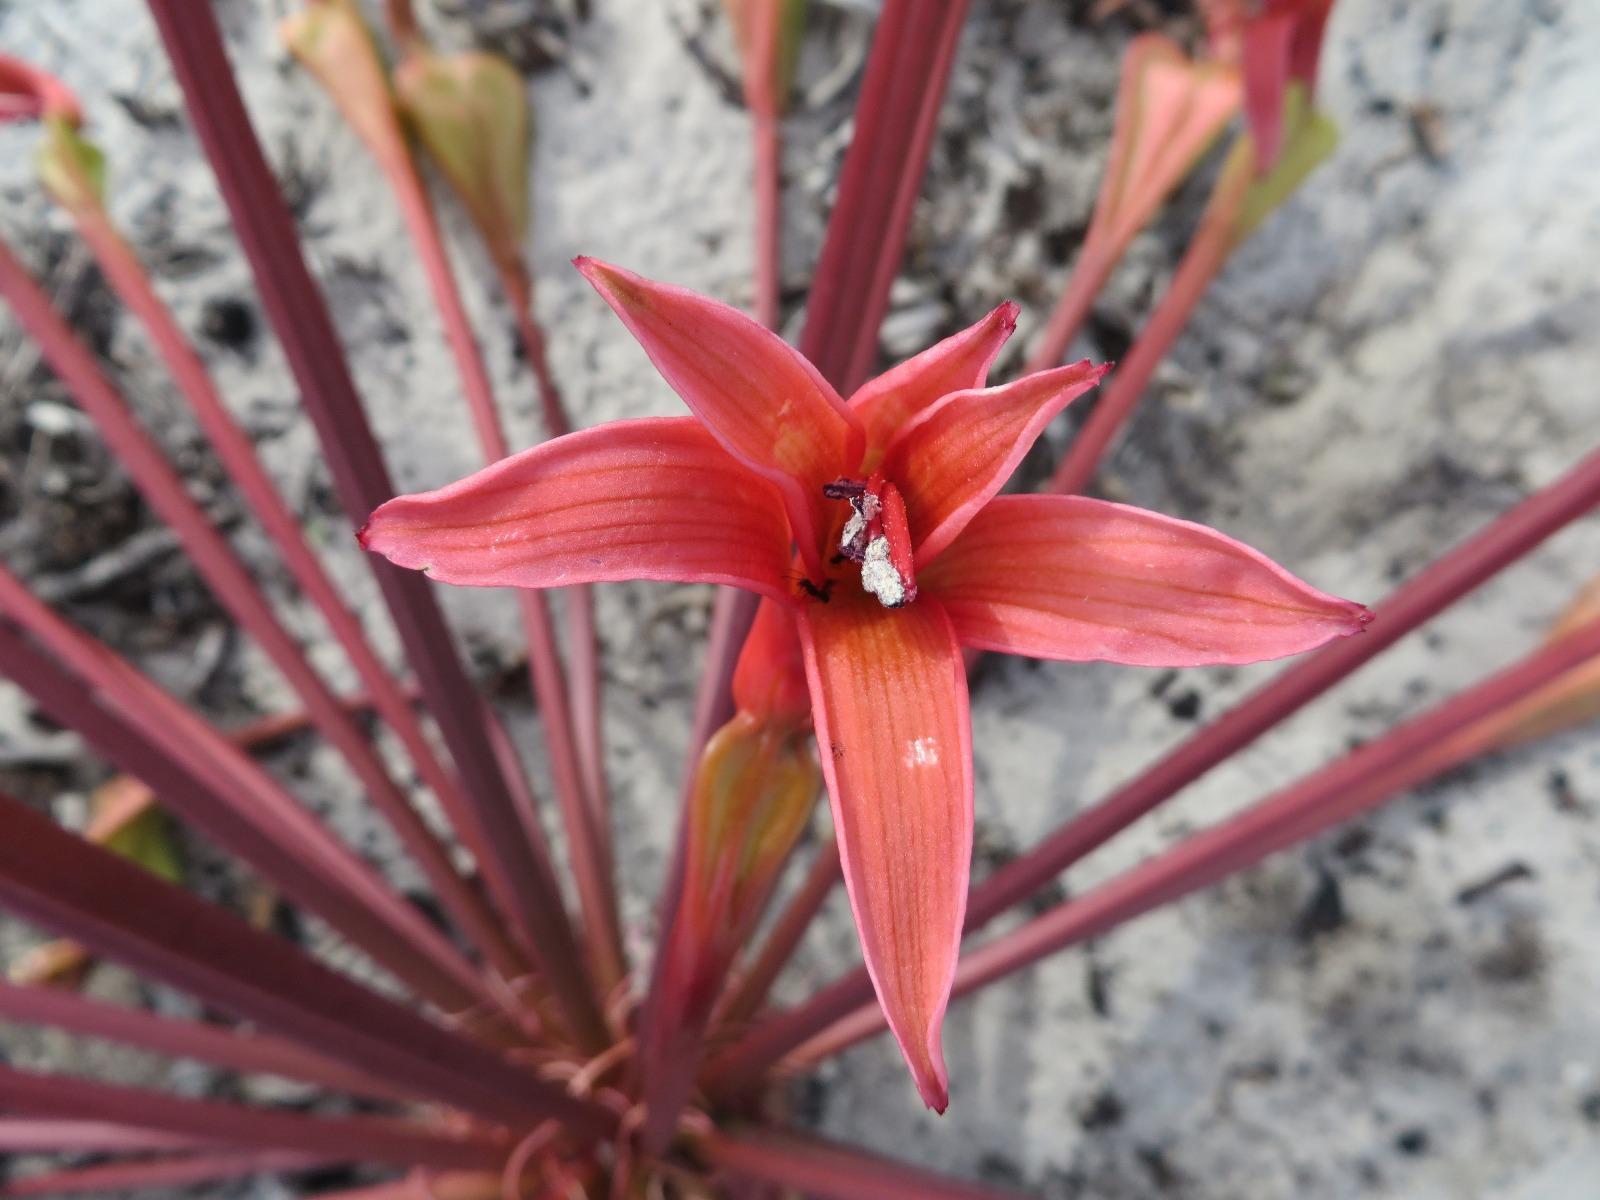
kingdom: Plantae
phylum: Tracheophyta
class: Liliopsida
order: Asparagales
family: Amaryllidaceae
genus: Brunsvigia
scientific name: Brunsvigia orientalis
